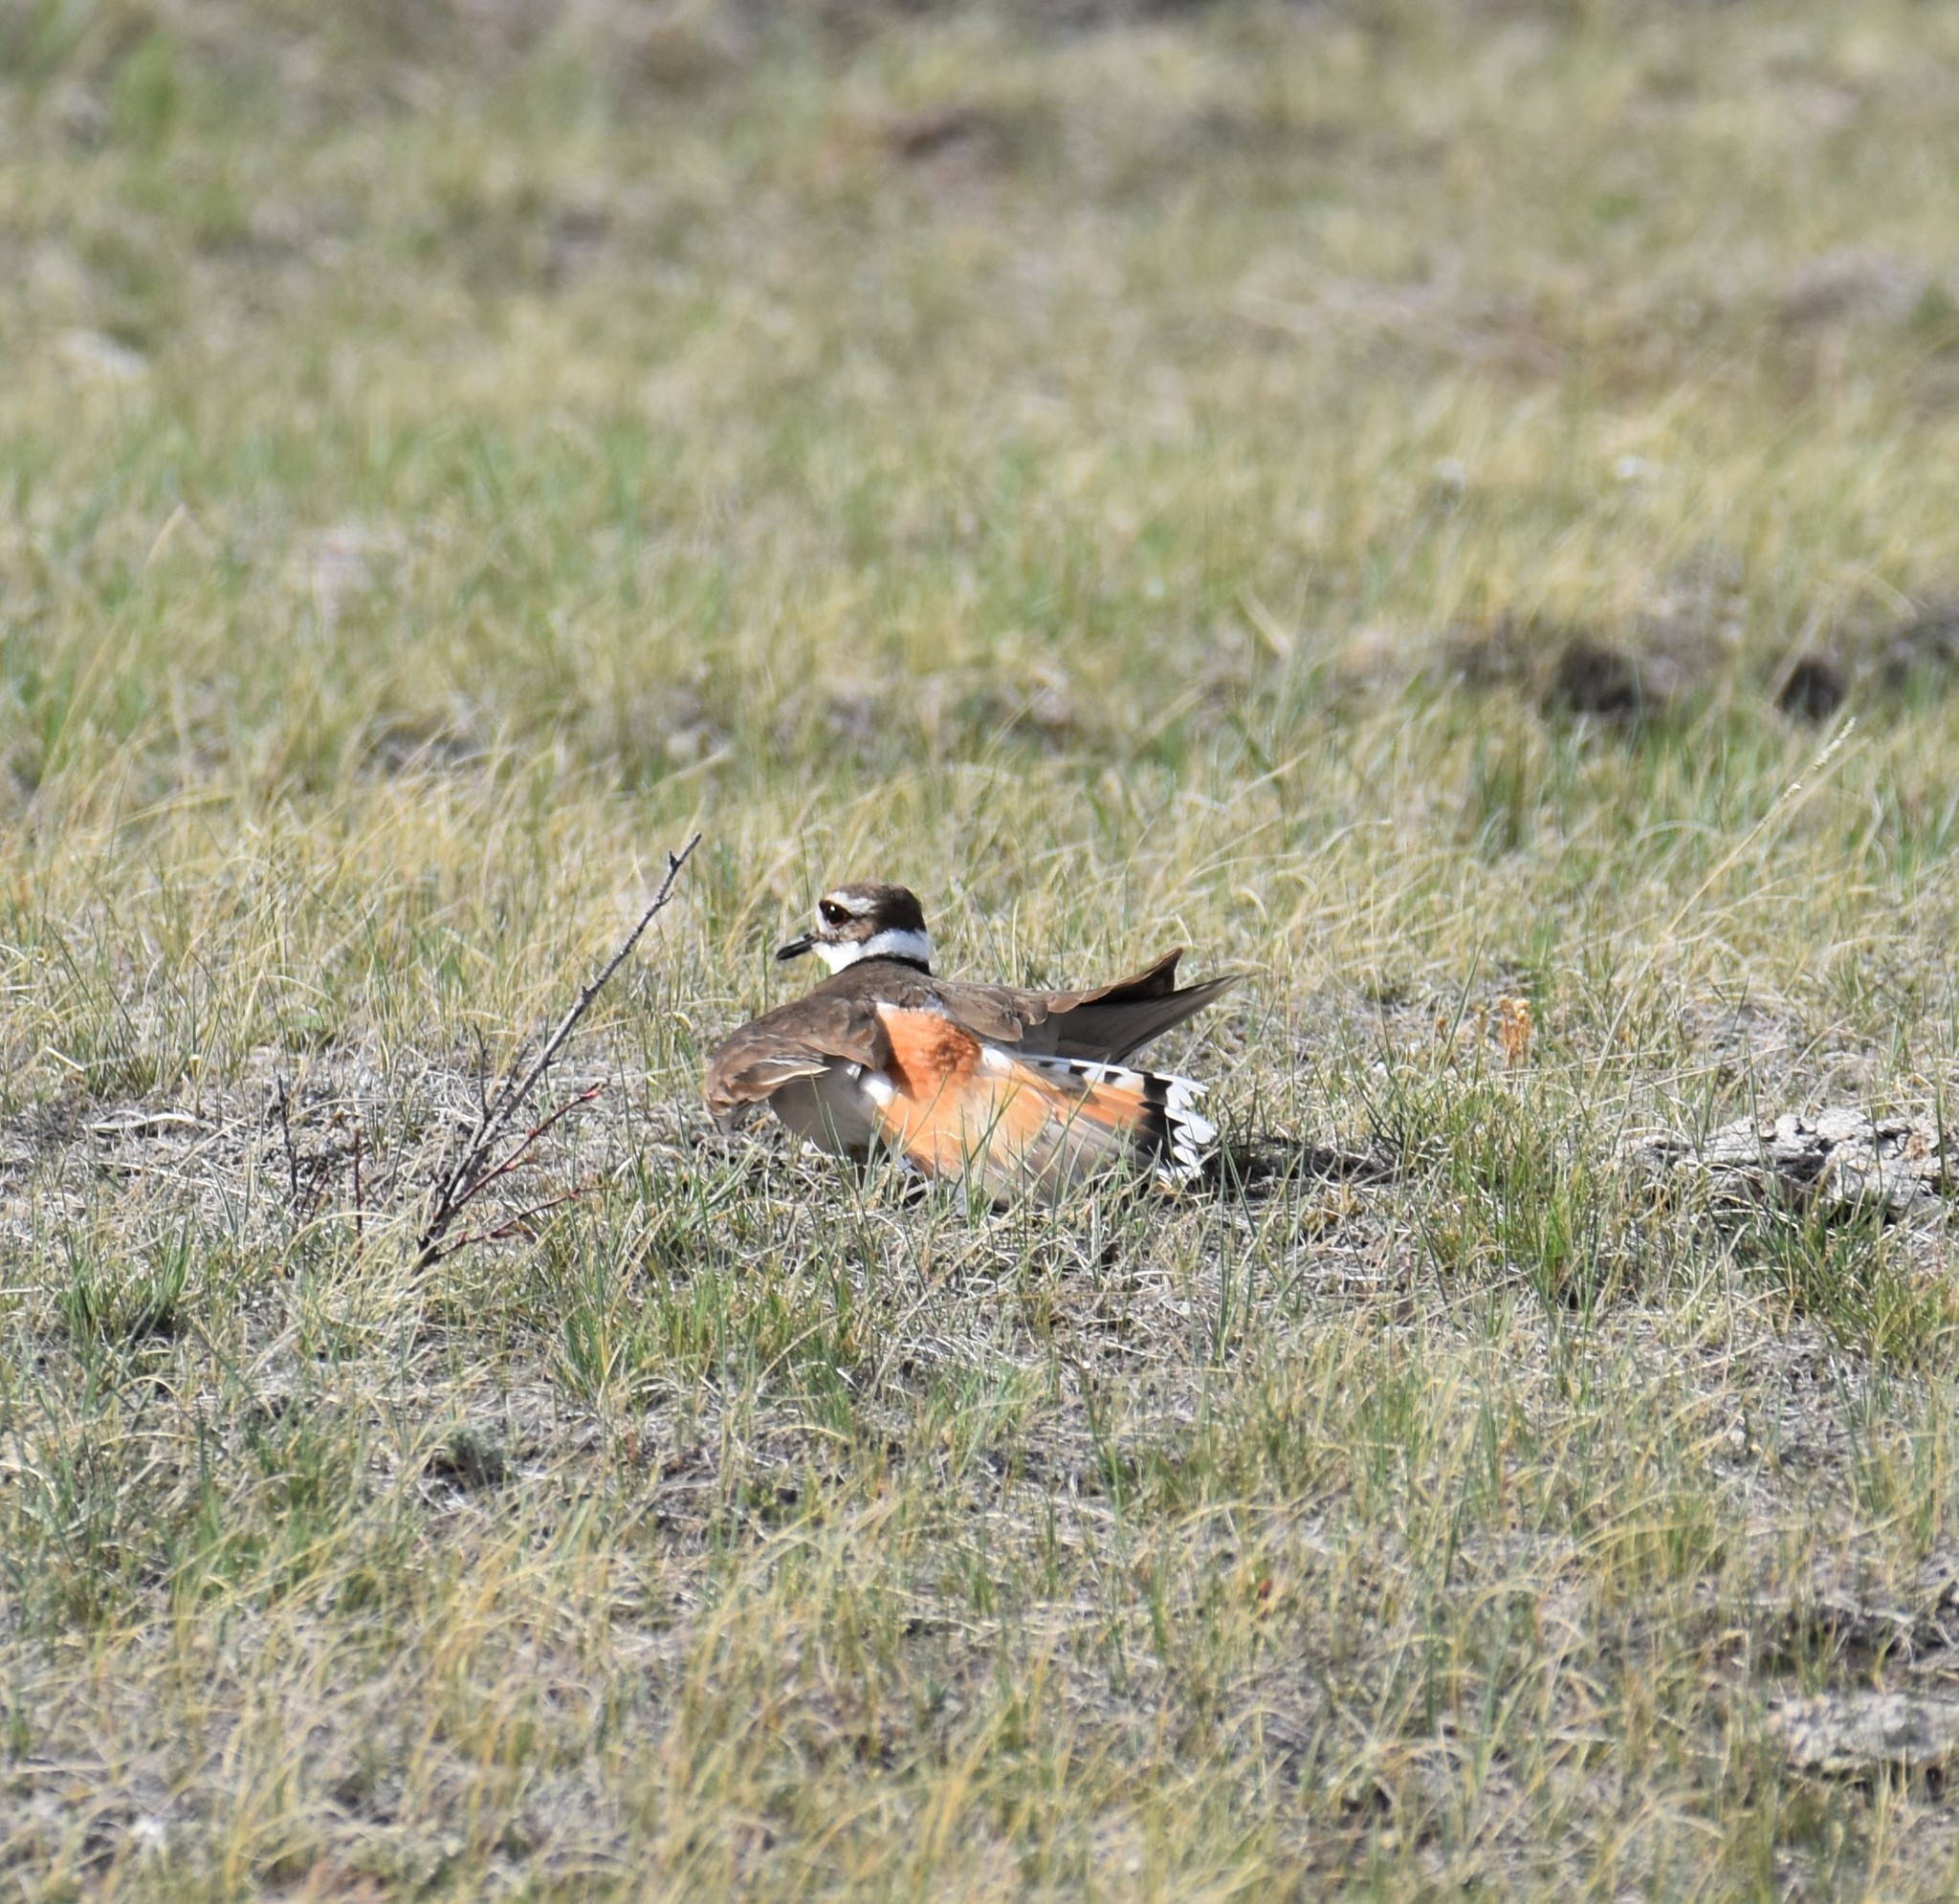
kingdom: Animalia
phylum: Chordata
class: Aves
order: Charadriiformes
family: Charadriidae
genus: Charadrius
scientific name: Charadrius vociferus
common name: Killdeer
